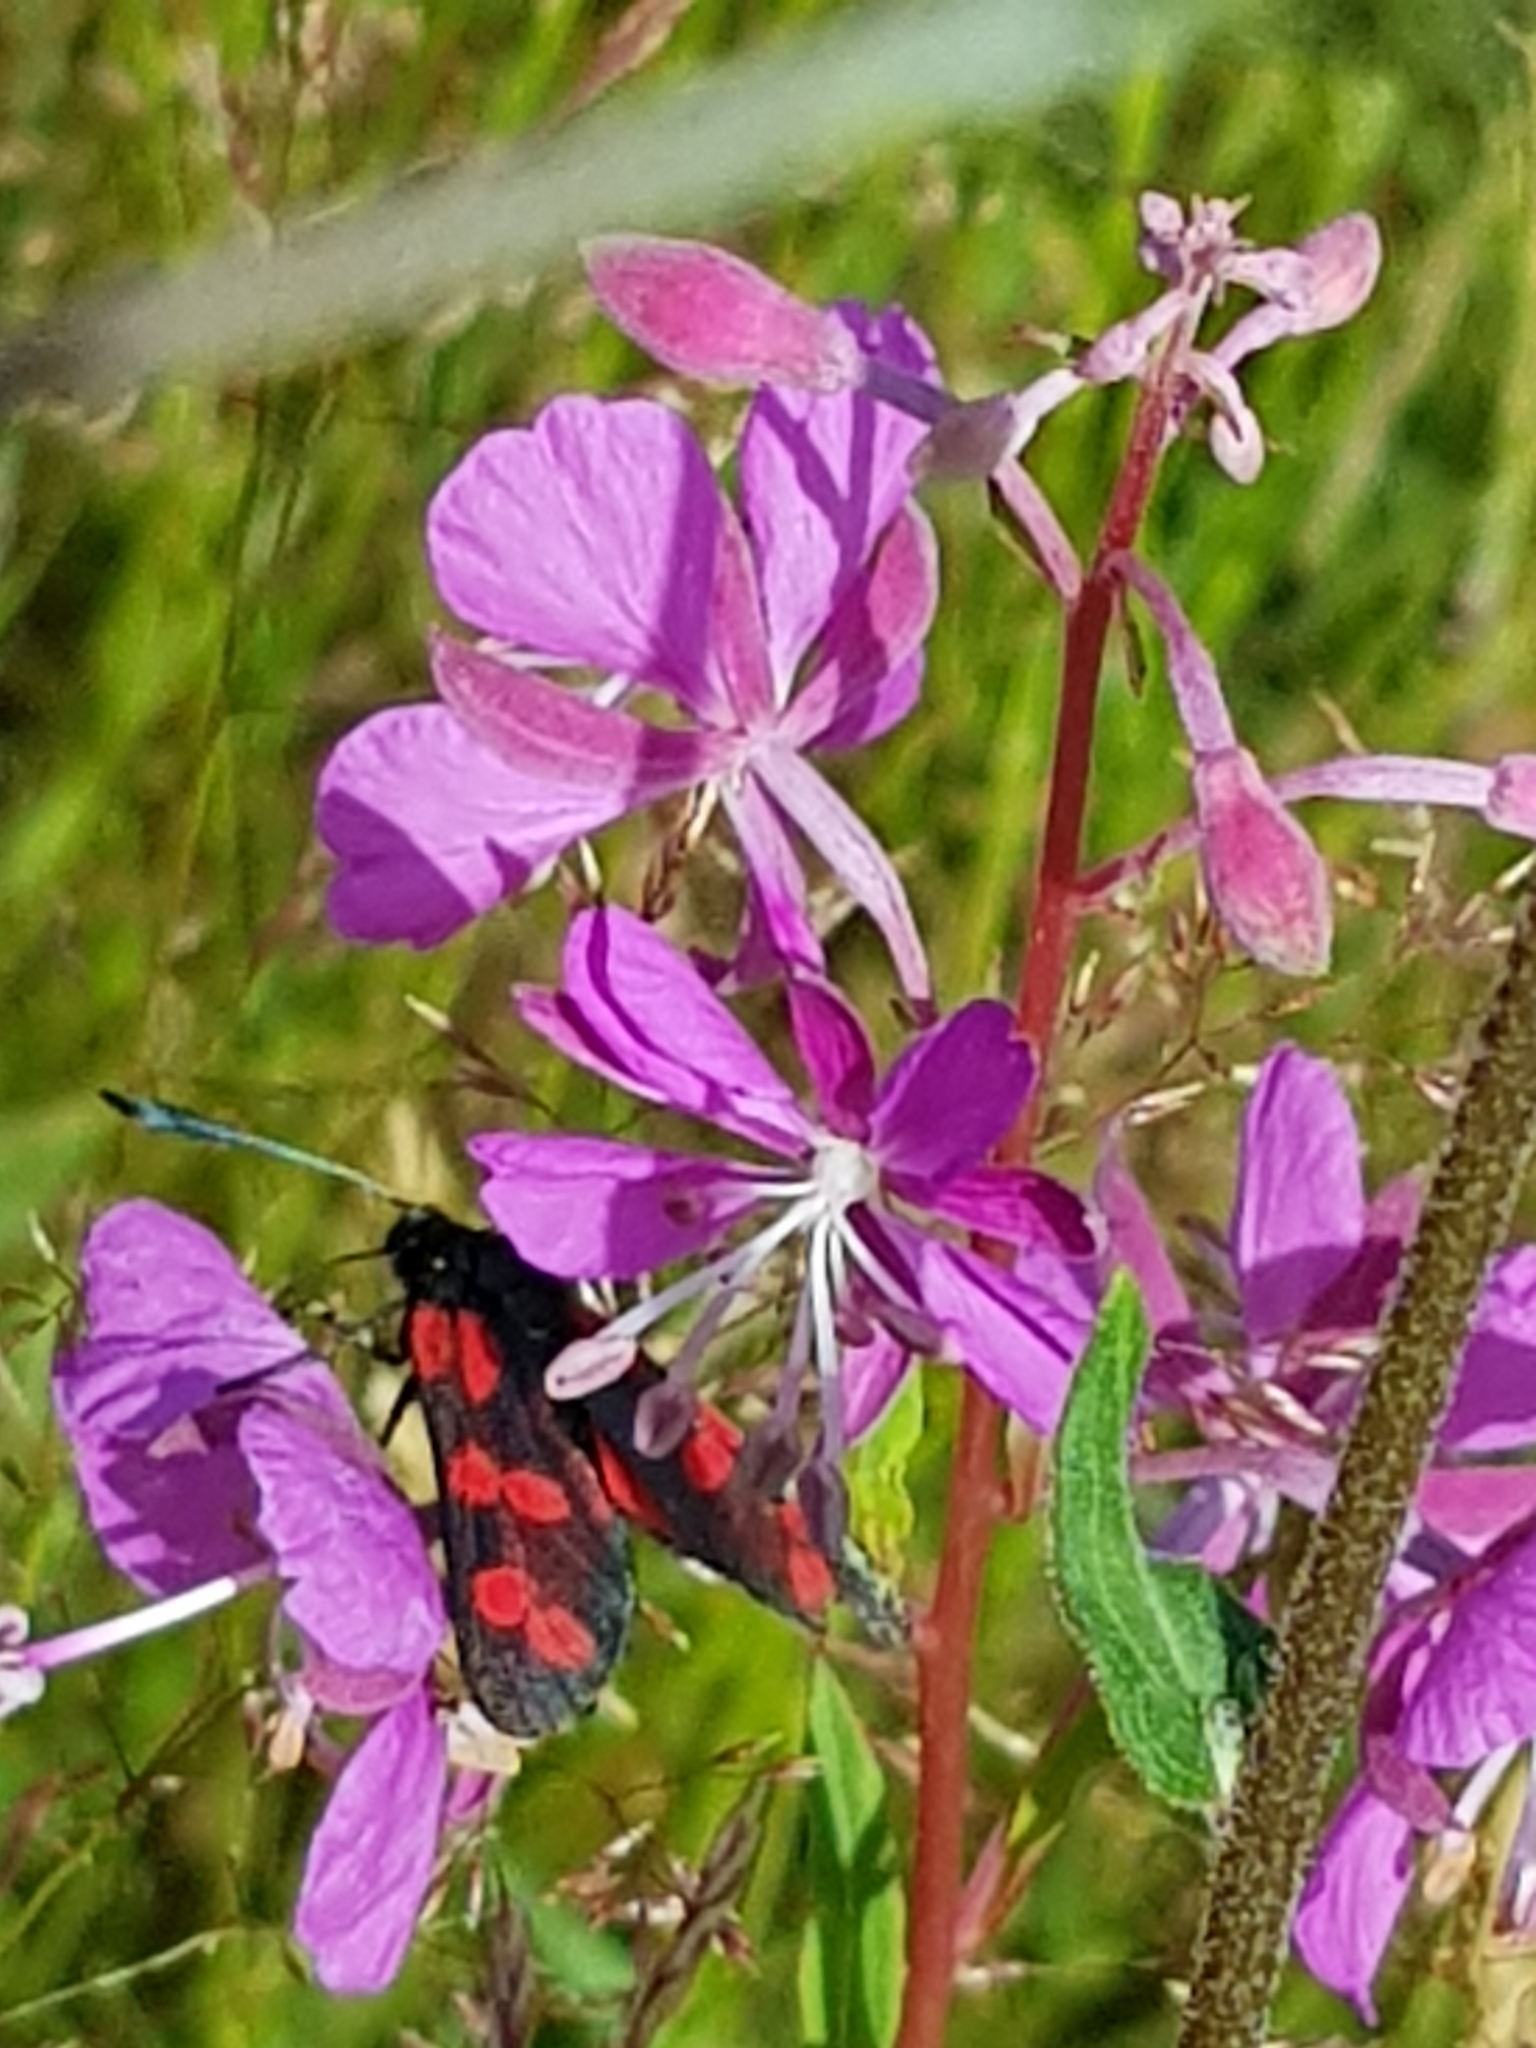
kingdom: Animalia
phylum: Arthropoda
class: Insecta
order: Lepidoptera
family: Zygaenidae
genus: Zygaena
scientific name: Zygaena filipendulae
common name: Six-spot burnet
